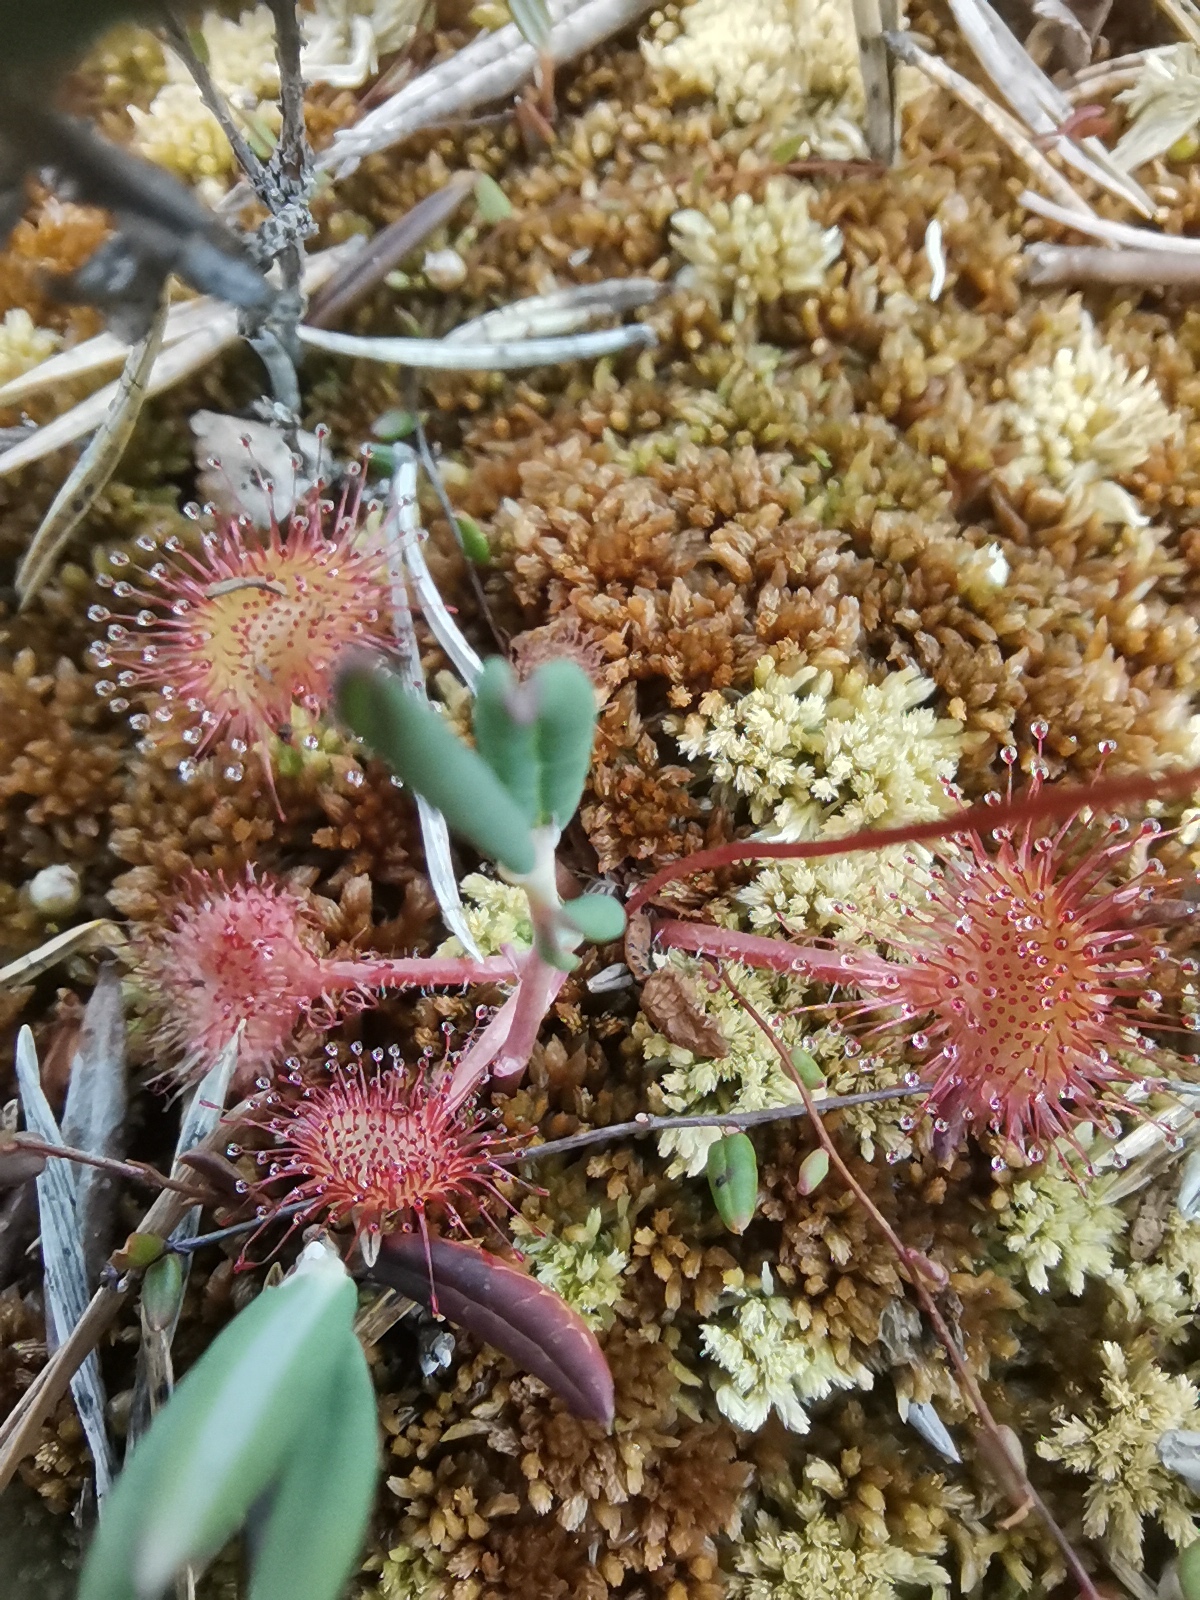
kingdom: Plantae
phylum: Tracheophyta
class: Magnoliopsida
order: Caryophyllales
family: Droseraceae
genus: Drosera
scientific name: Drosera rotundifolia
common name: Round-leaved sundew
